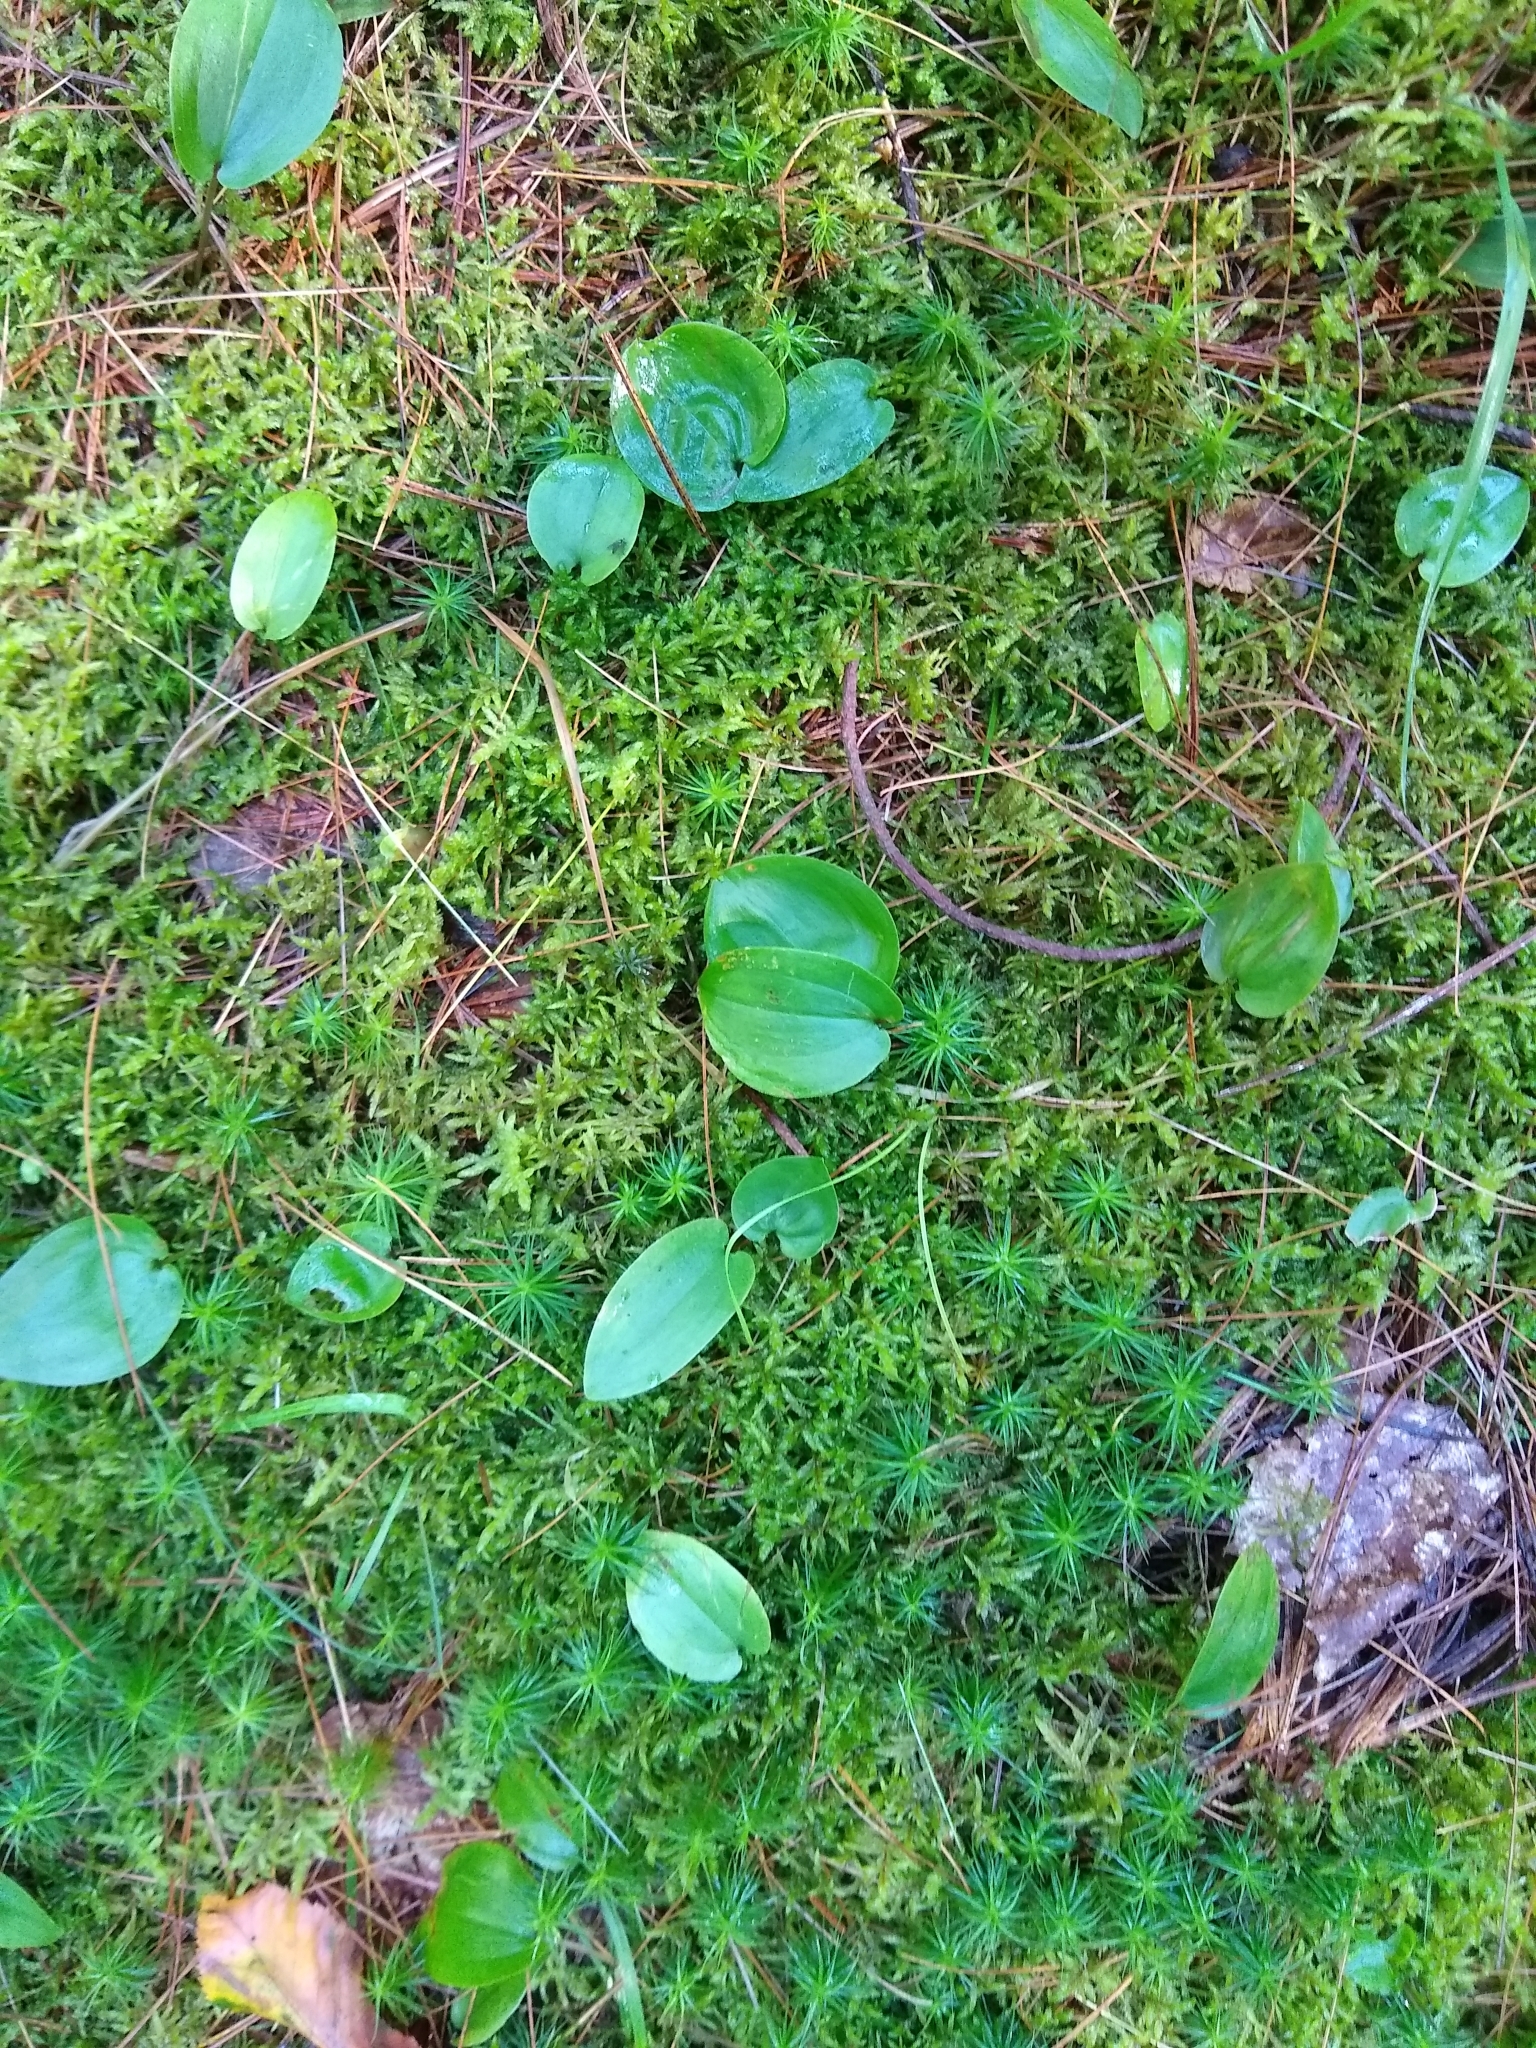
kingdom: Plantae
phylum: Tracheophyta
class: Liliopsida
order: Asparagales
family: Asparagaceae
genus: Maianthemum
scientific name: Maianthemum canadense
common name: False lily-of-the-valley
